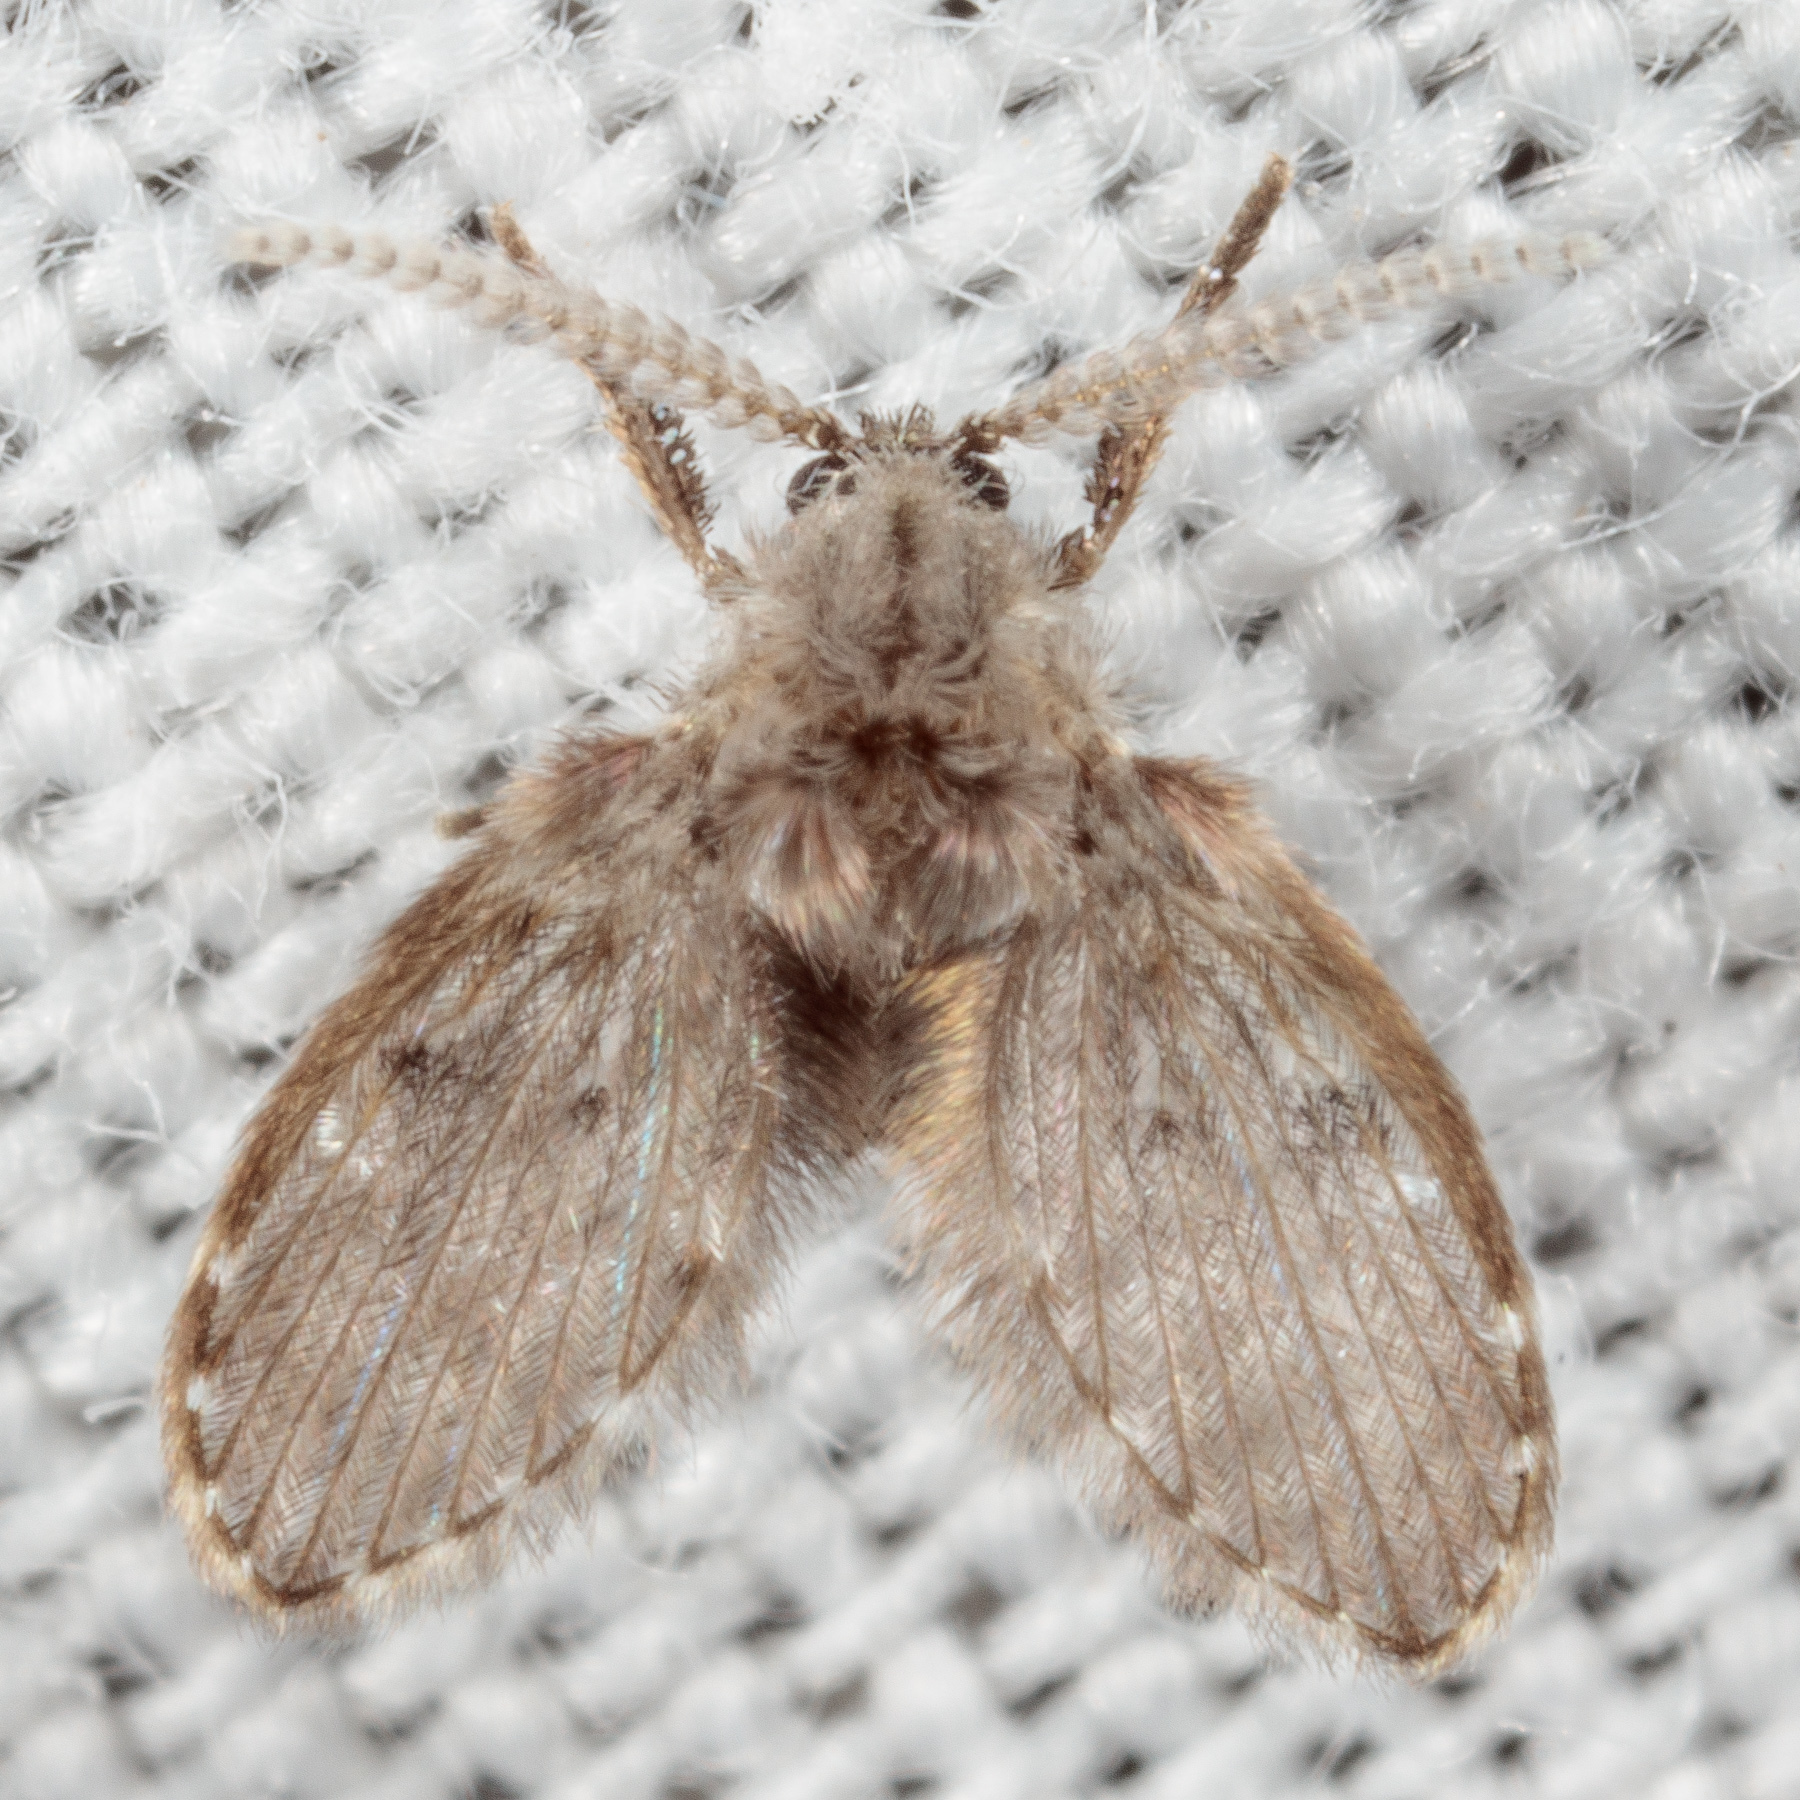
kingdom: Animalia
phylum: Arthropoda
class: Insecta
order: Diptera
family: Psychodidae
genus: Clogmia
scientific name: Clogmia albipunctatus
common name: White-spotted moth fly
